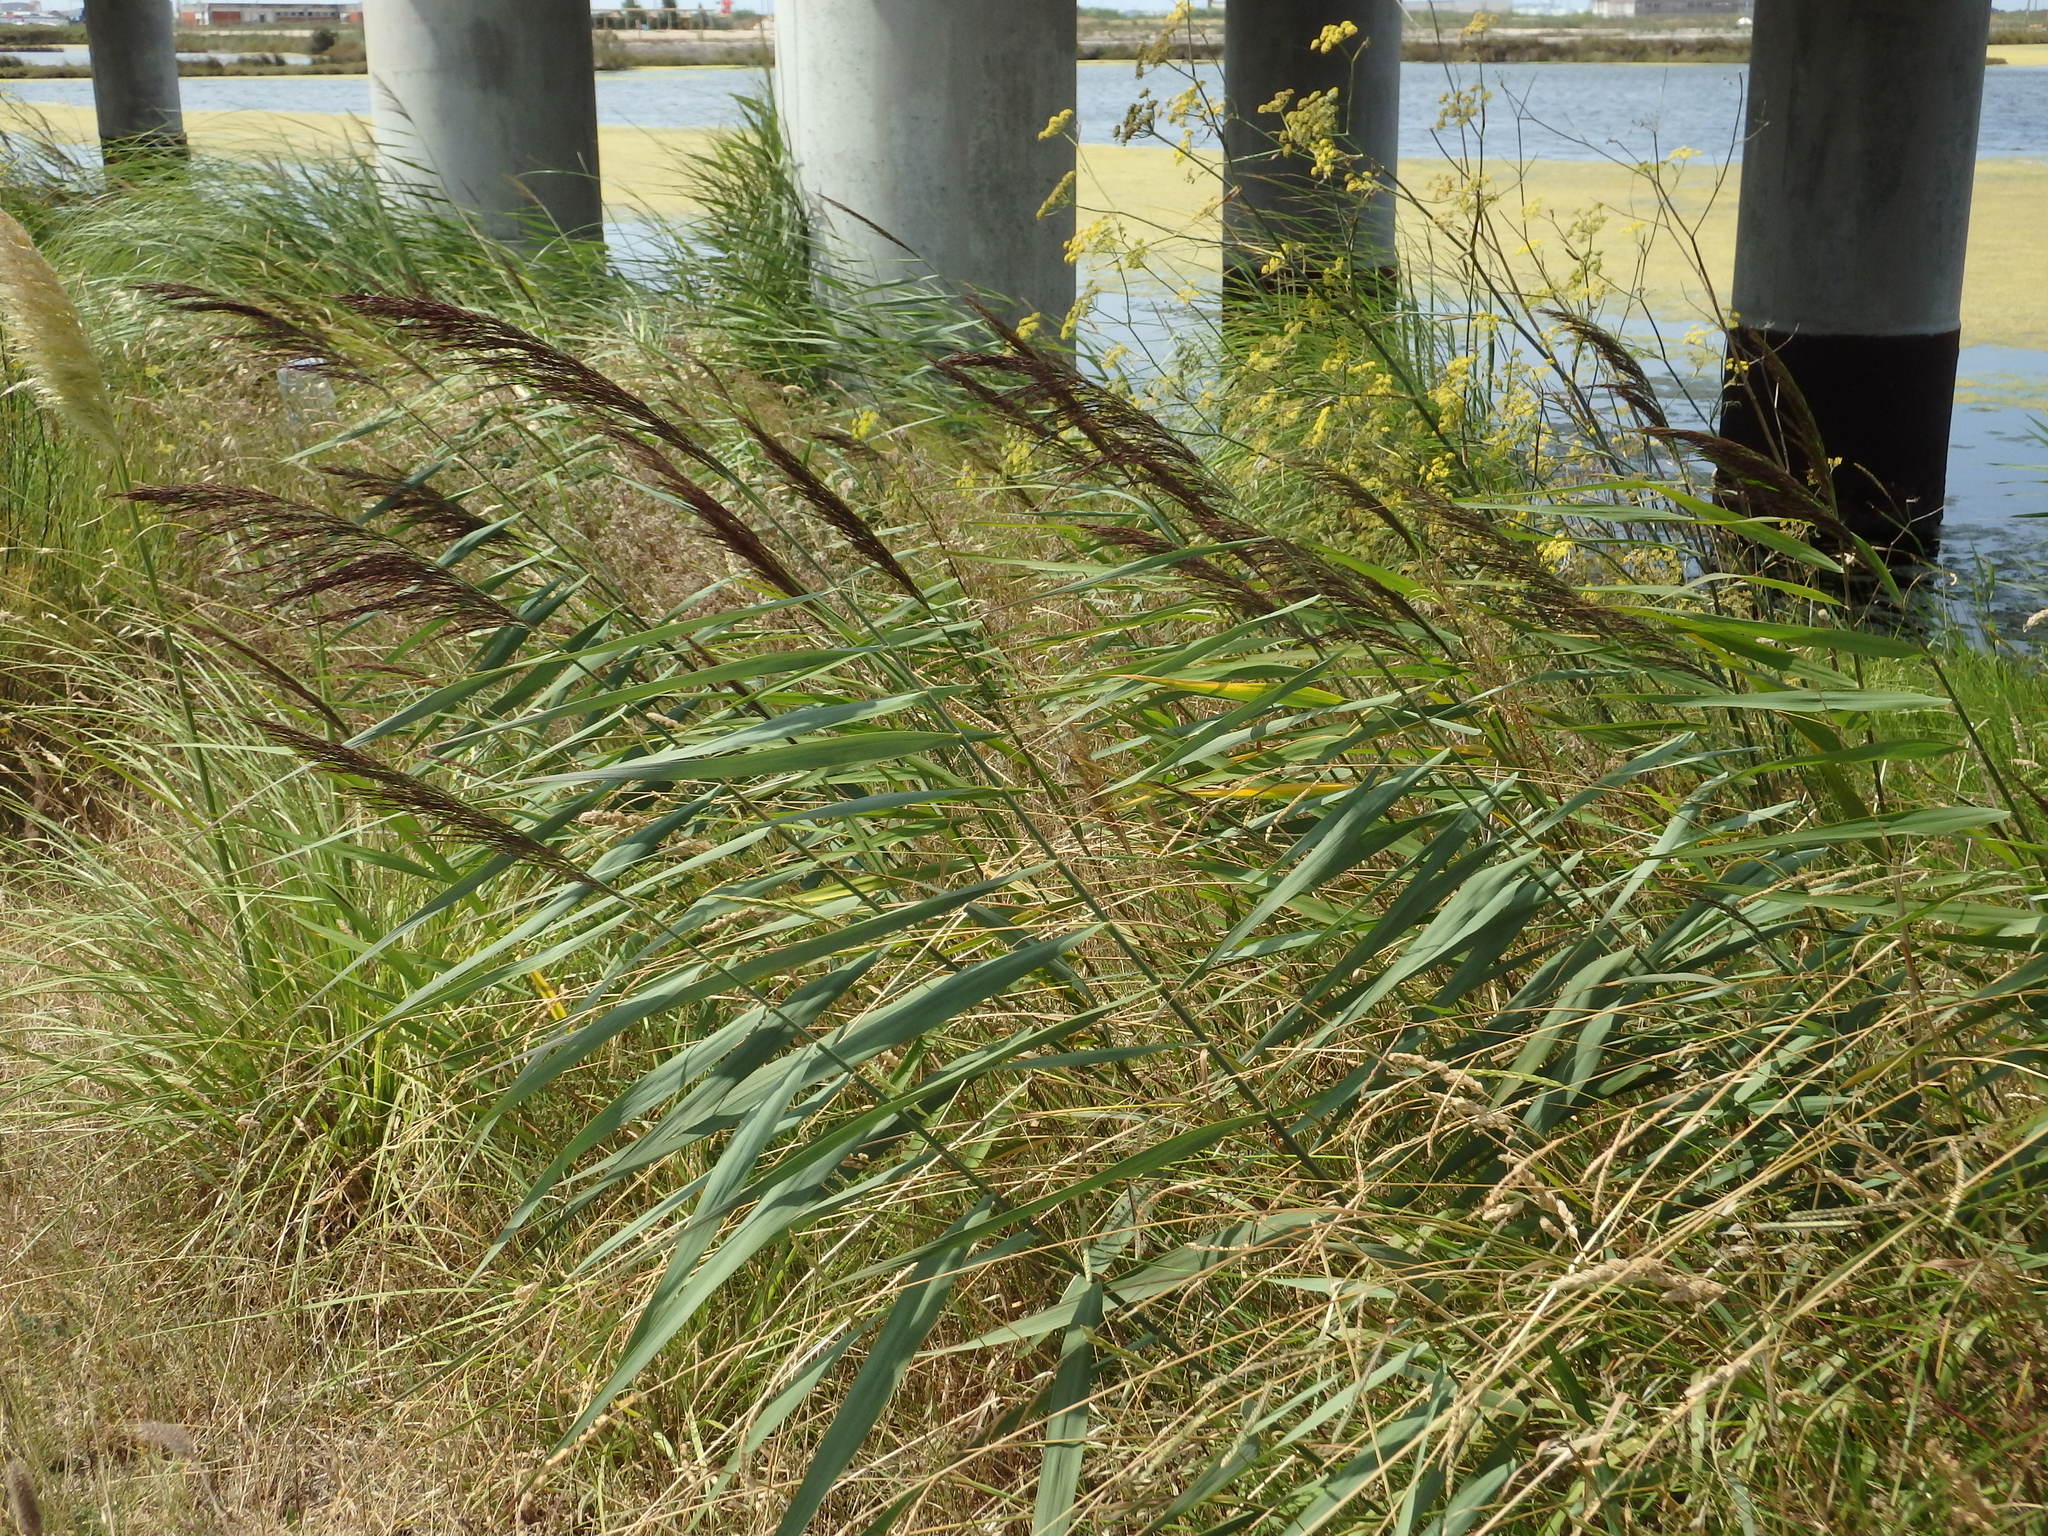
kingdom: Plantae
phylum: Tracheophyta
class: Liliopsida
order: Poales
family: Poaceae
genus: Phragmites
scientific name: Phragmites australis
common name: Common reed
